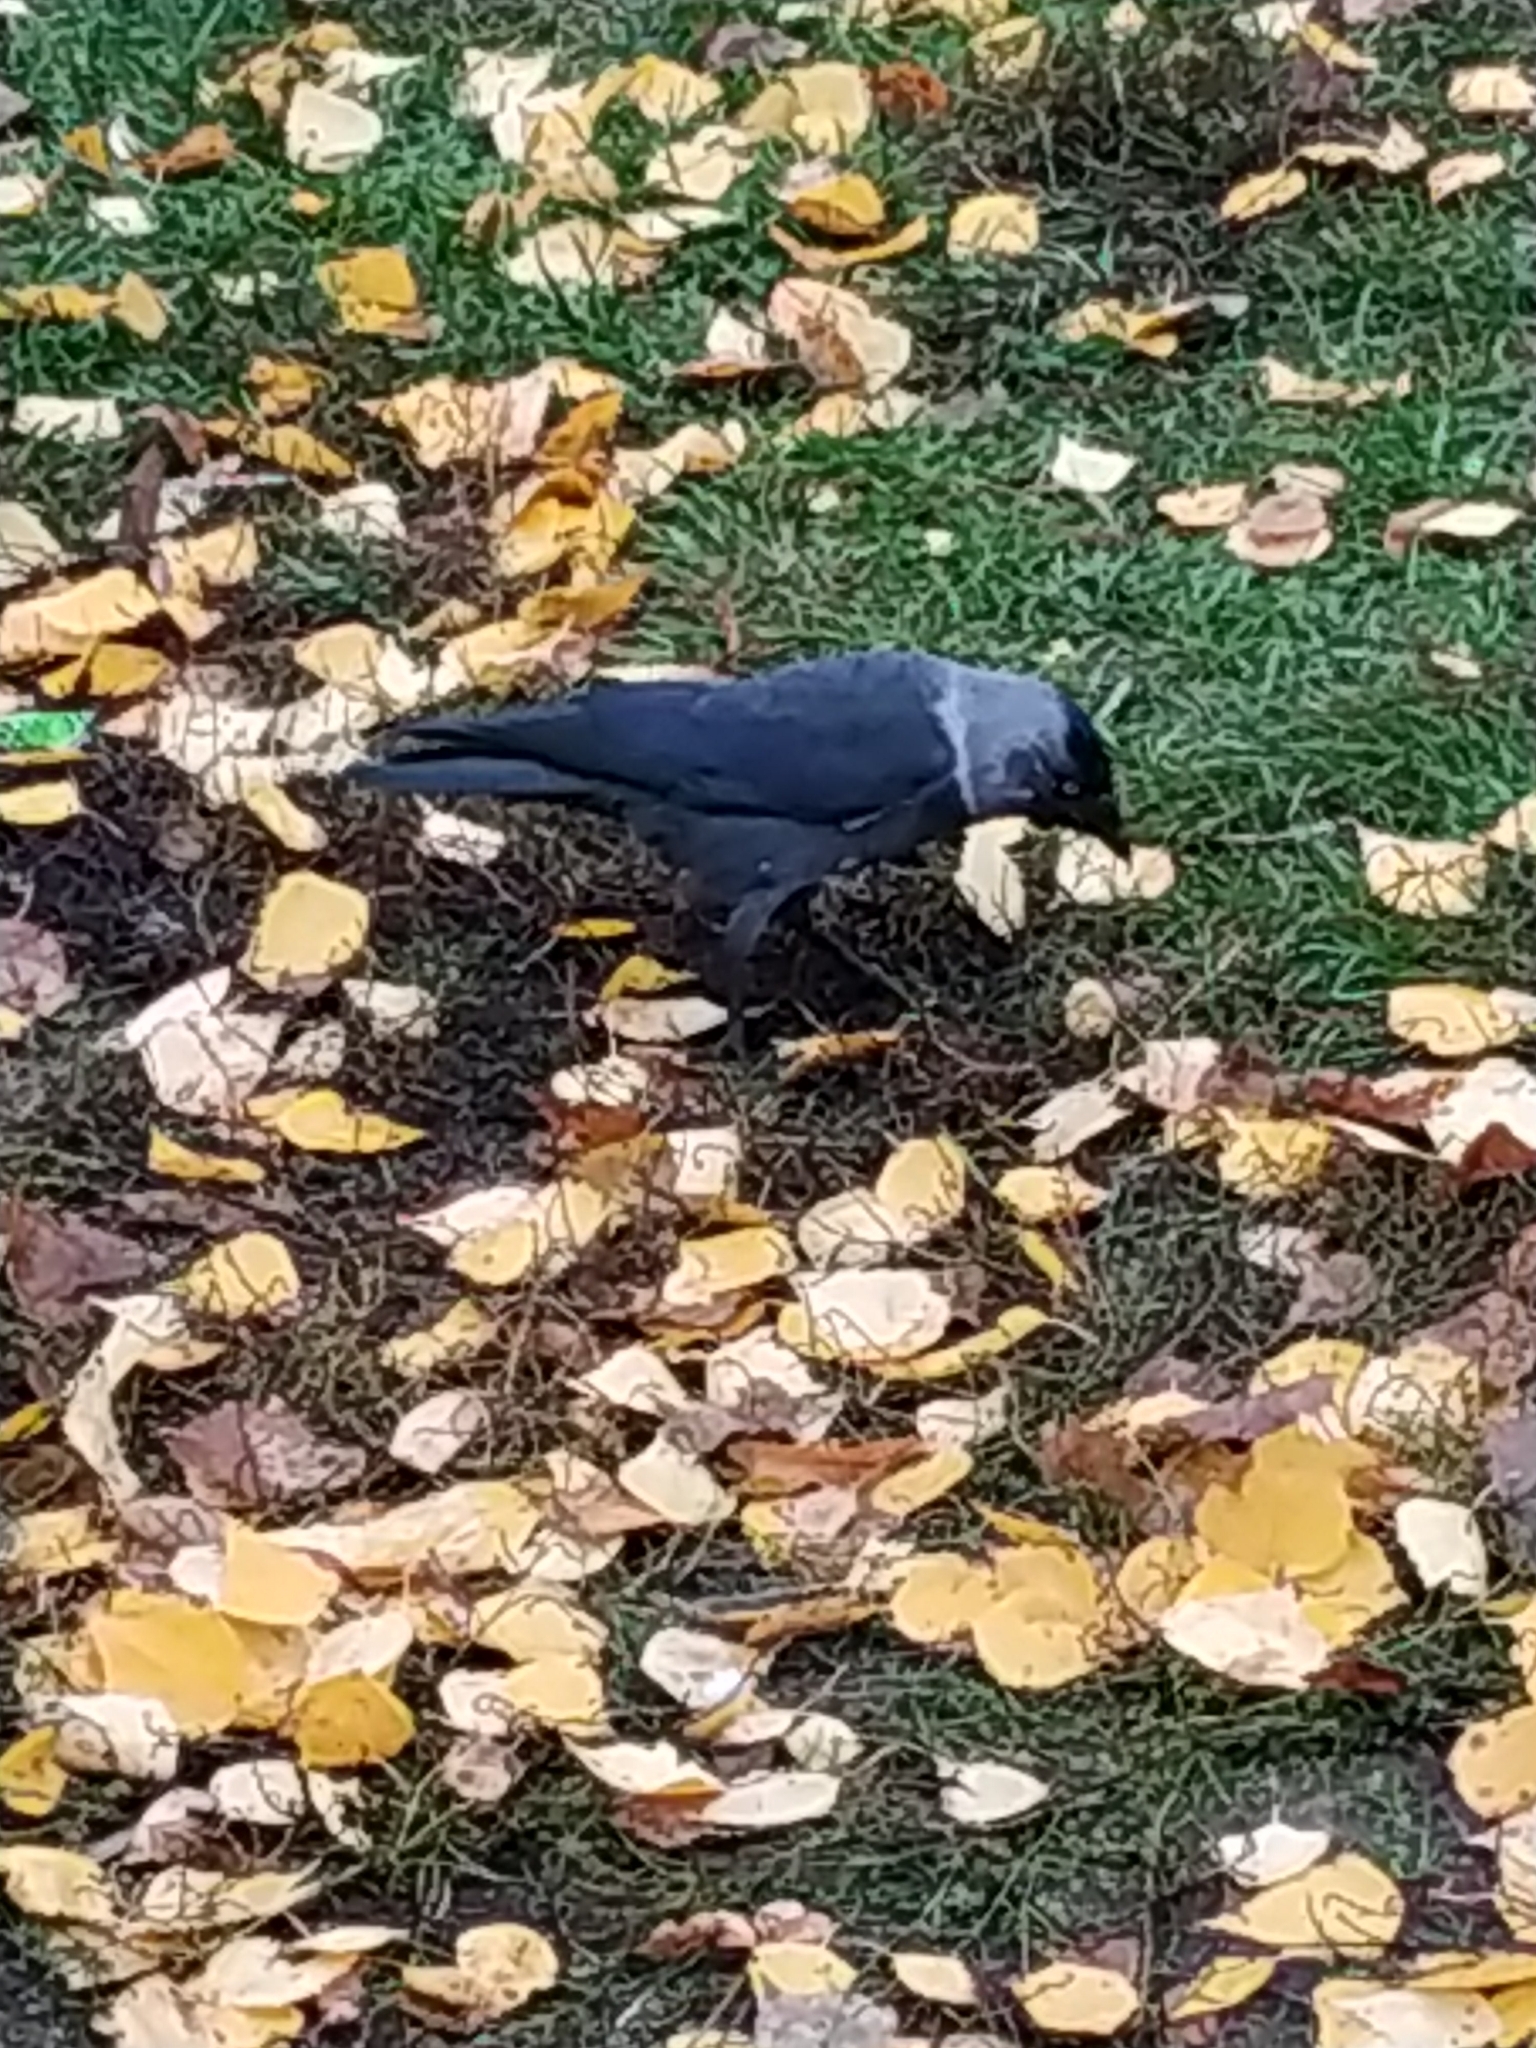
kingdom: Animalia
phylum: Chordata
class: Aves
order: Passeriformes
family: Corvidae
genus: Coloeus
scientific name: Coloeus monedula
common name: Western jackdaw
